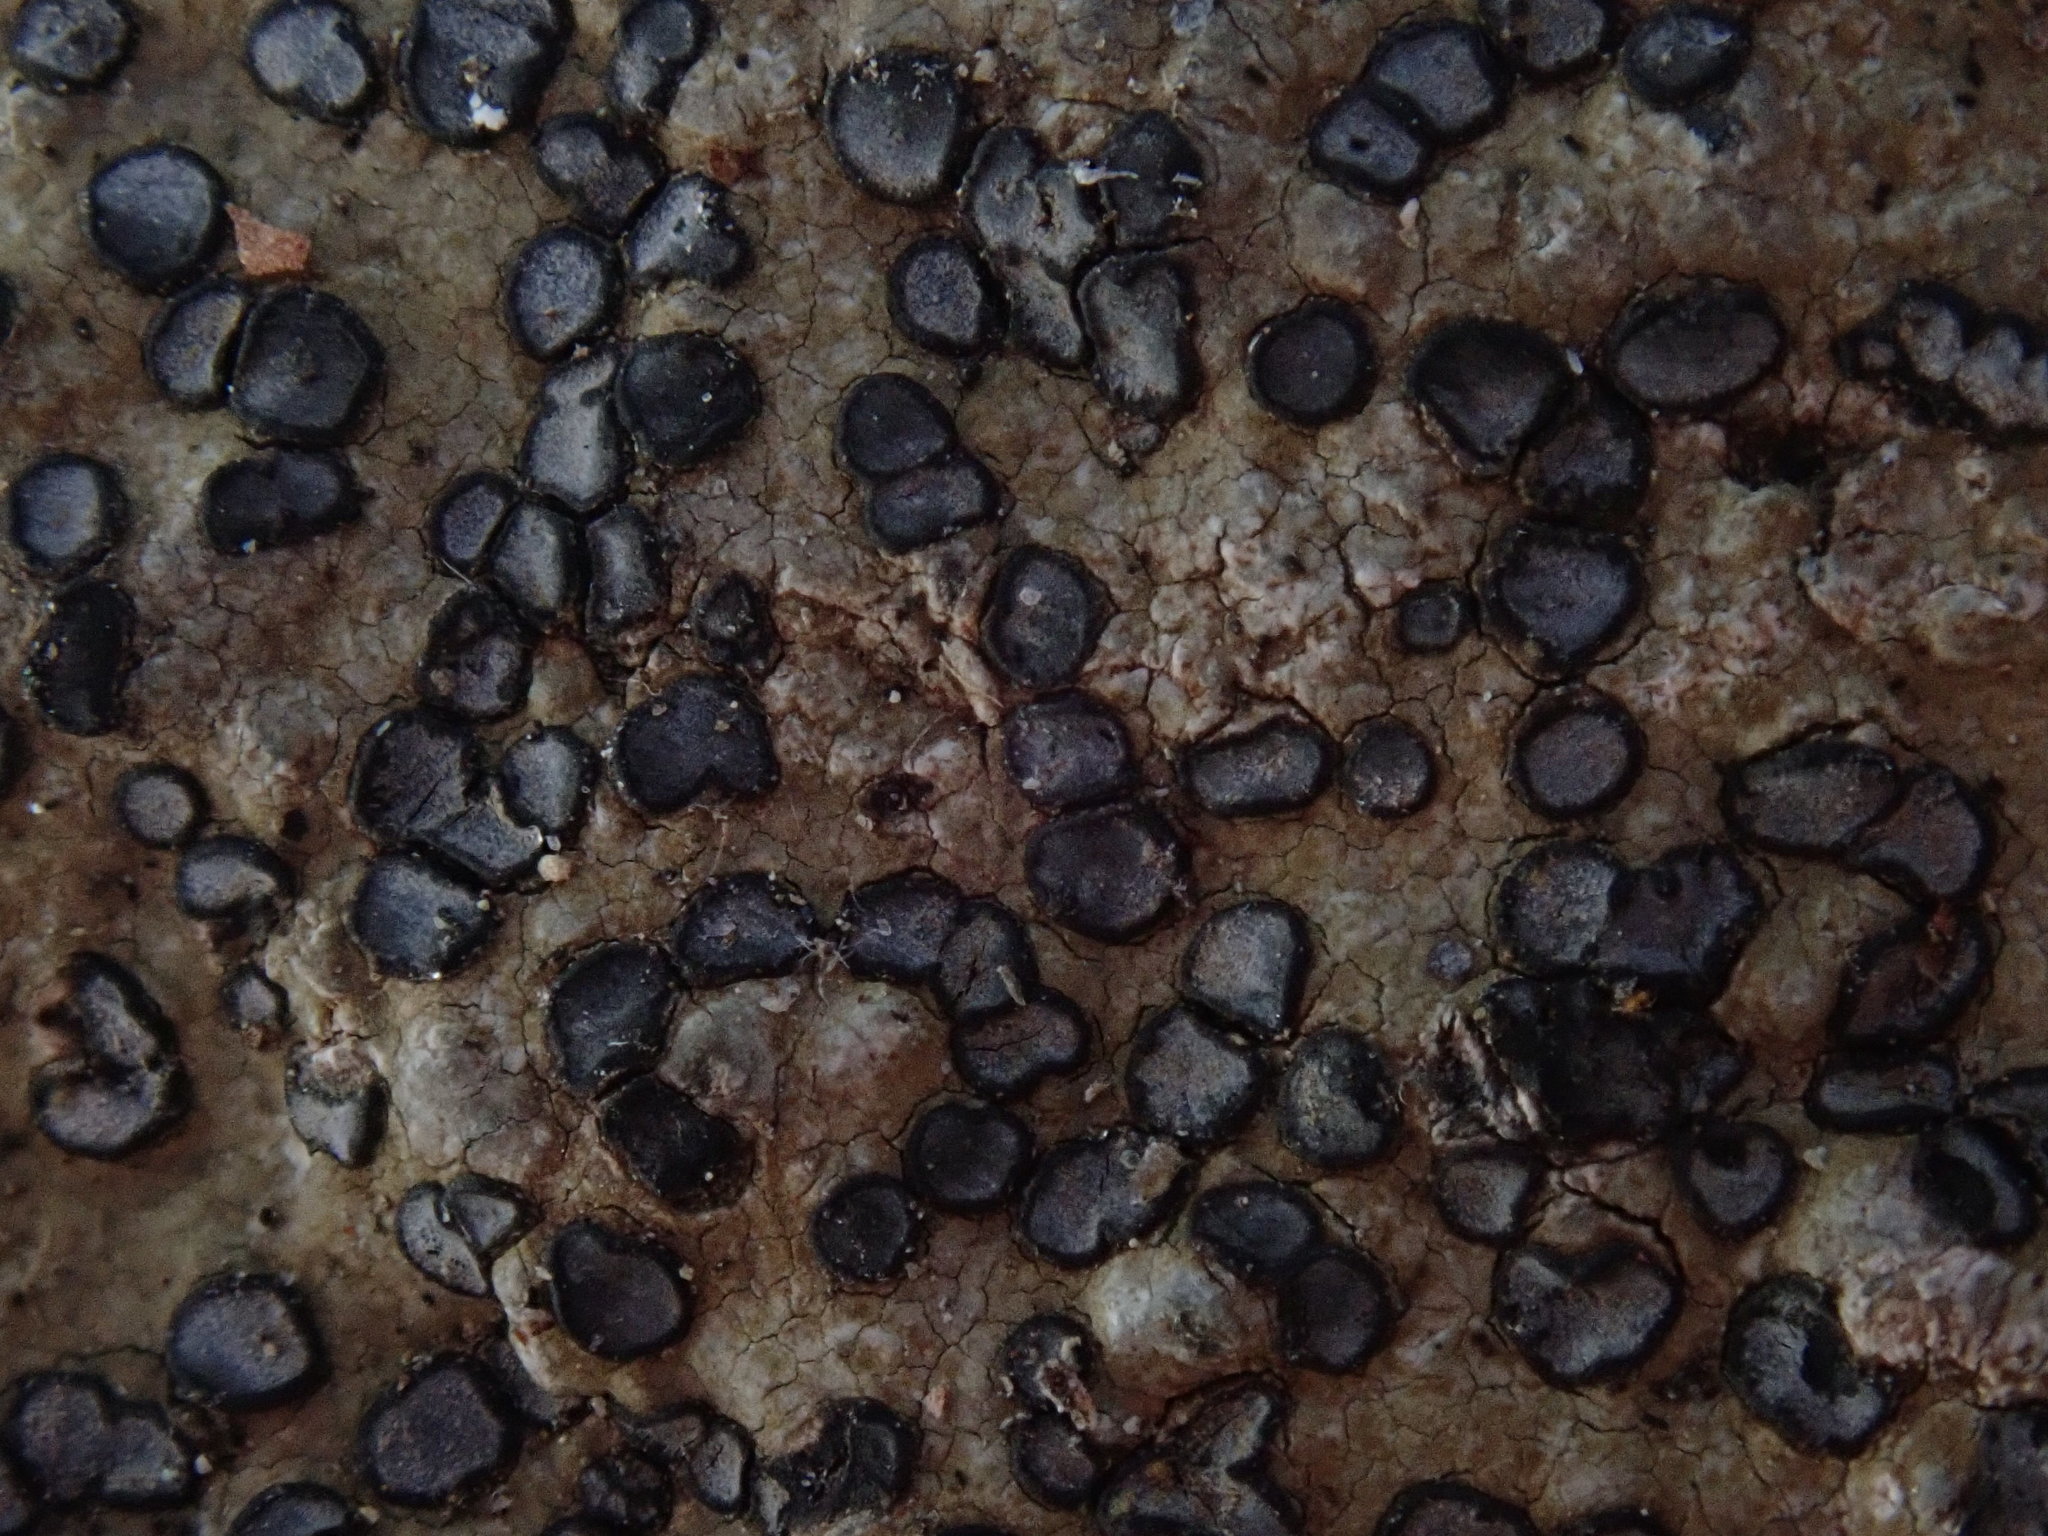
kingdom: Fungi
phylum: Ascomycota
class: Lecanoromycetes
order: Lecideales
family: Lecideaceae
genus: Porpidia
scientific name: Porpidia albocaerulescens
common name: Smokey-eyed boulder lichen
